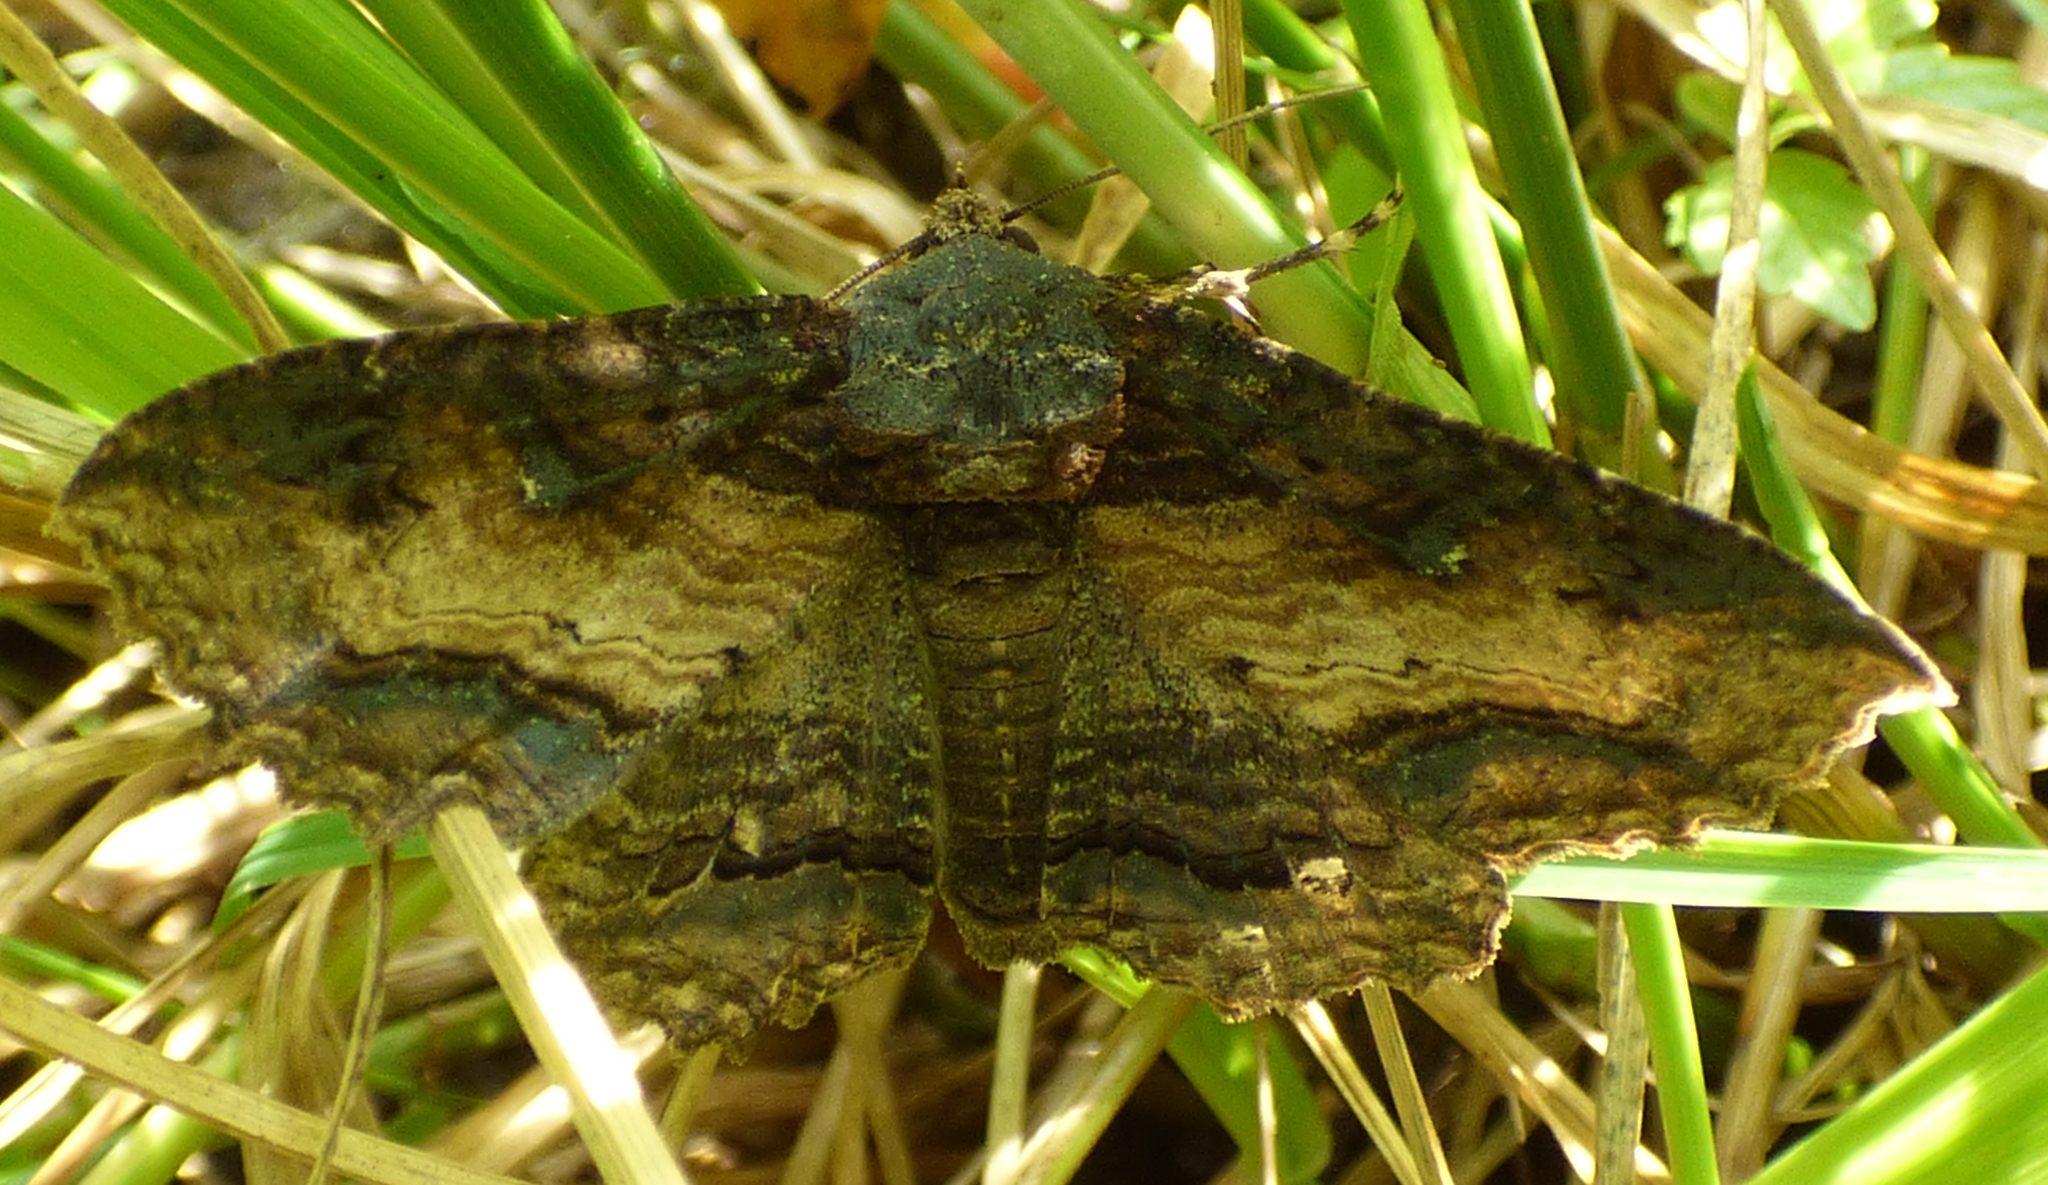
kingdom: Animalia
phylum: Arthropoda
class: Insecta
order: Lepidoptera
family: Erebidae
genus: Zale
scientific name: Zale lunata
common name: Lunate zale moth
